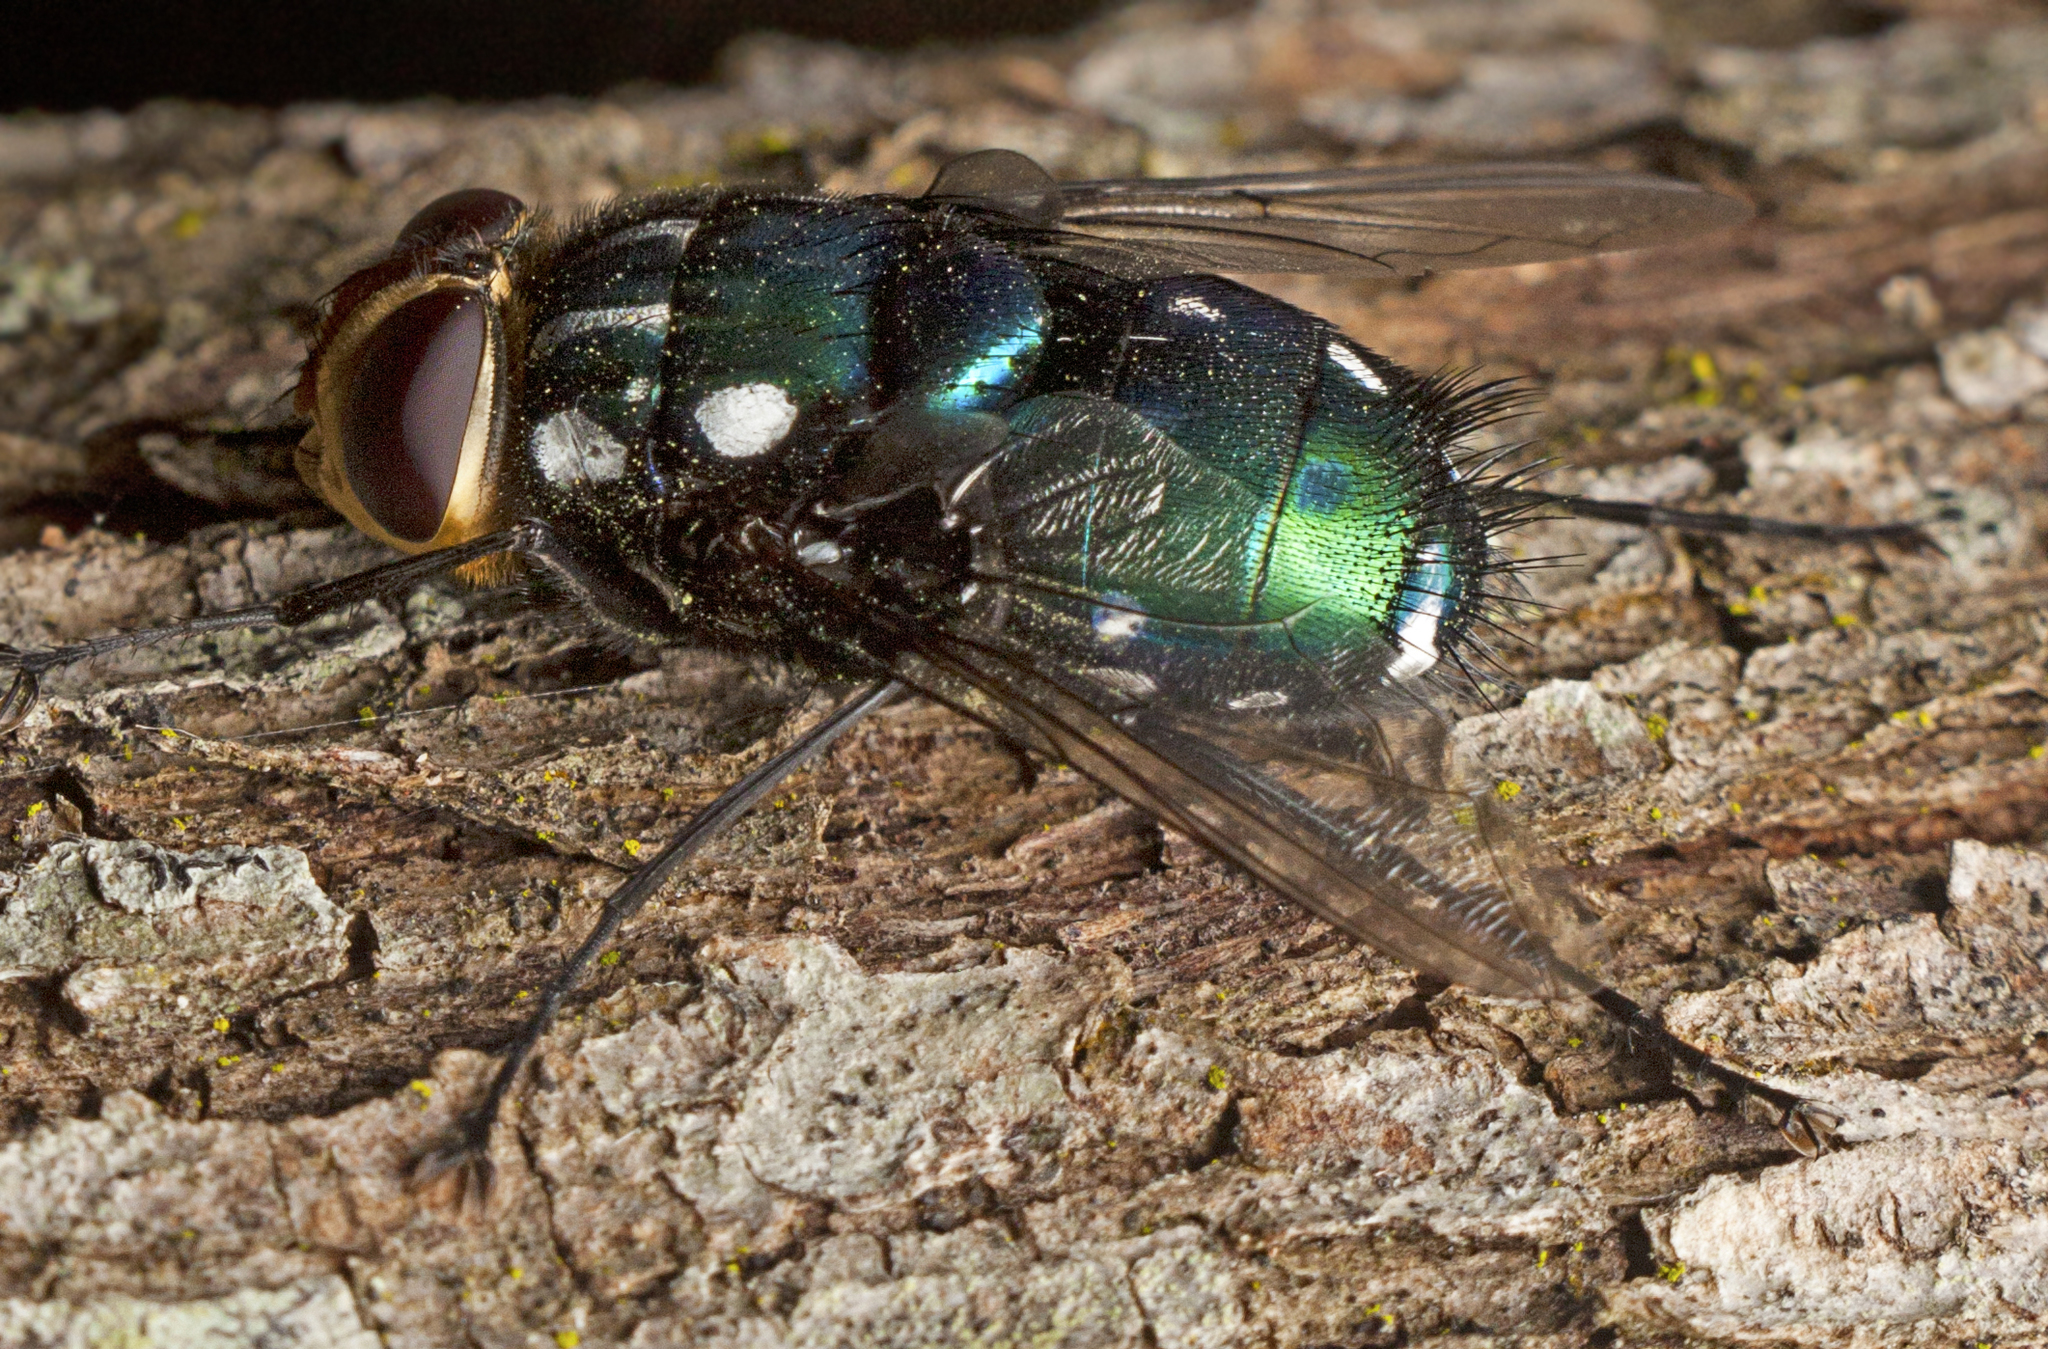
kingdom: Animalia
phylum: Arthropoda
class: Insecta
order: Diptera
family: Tachinidae
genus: Rutilia
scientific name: Rutilia argentifera
